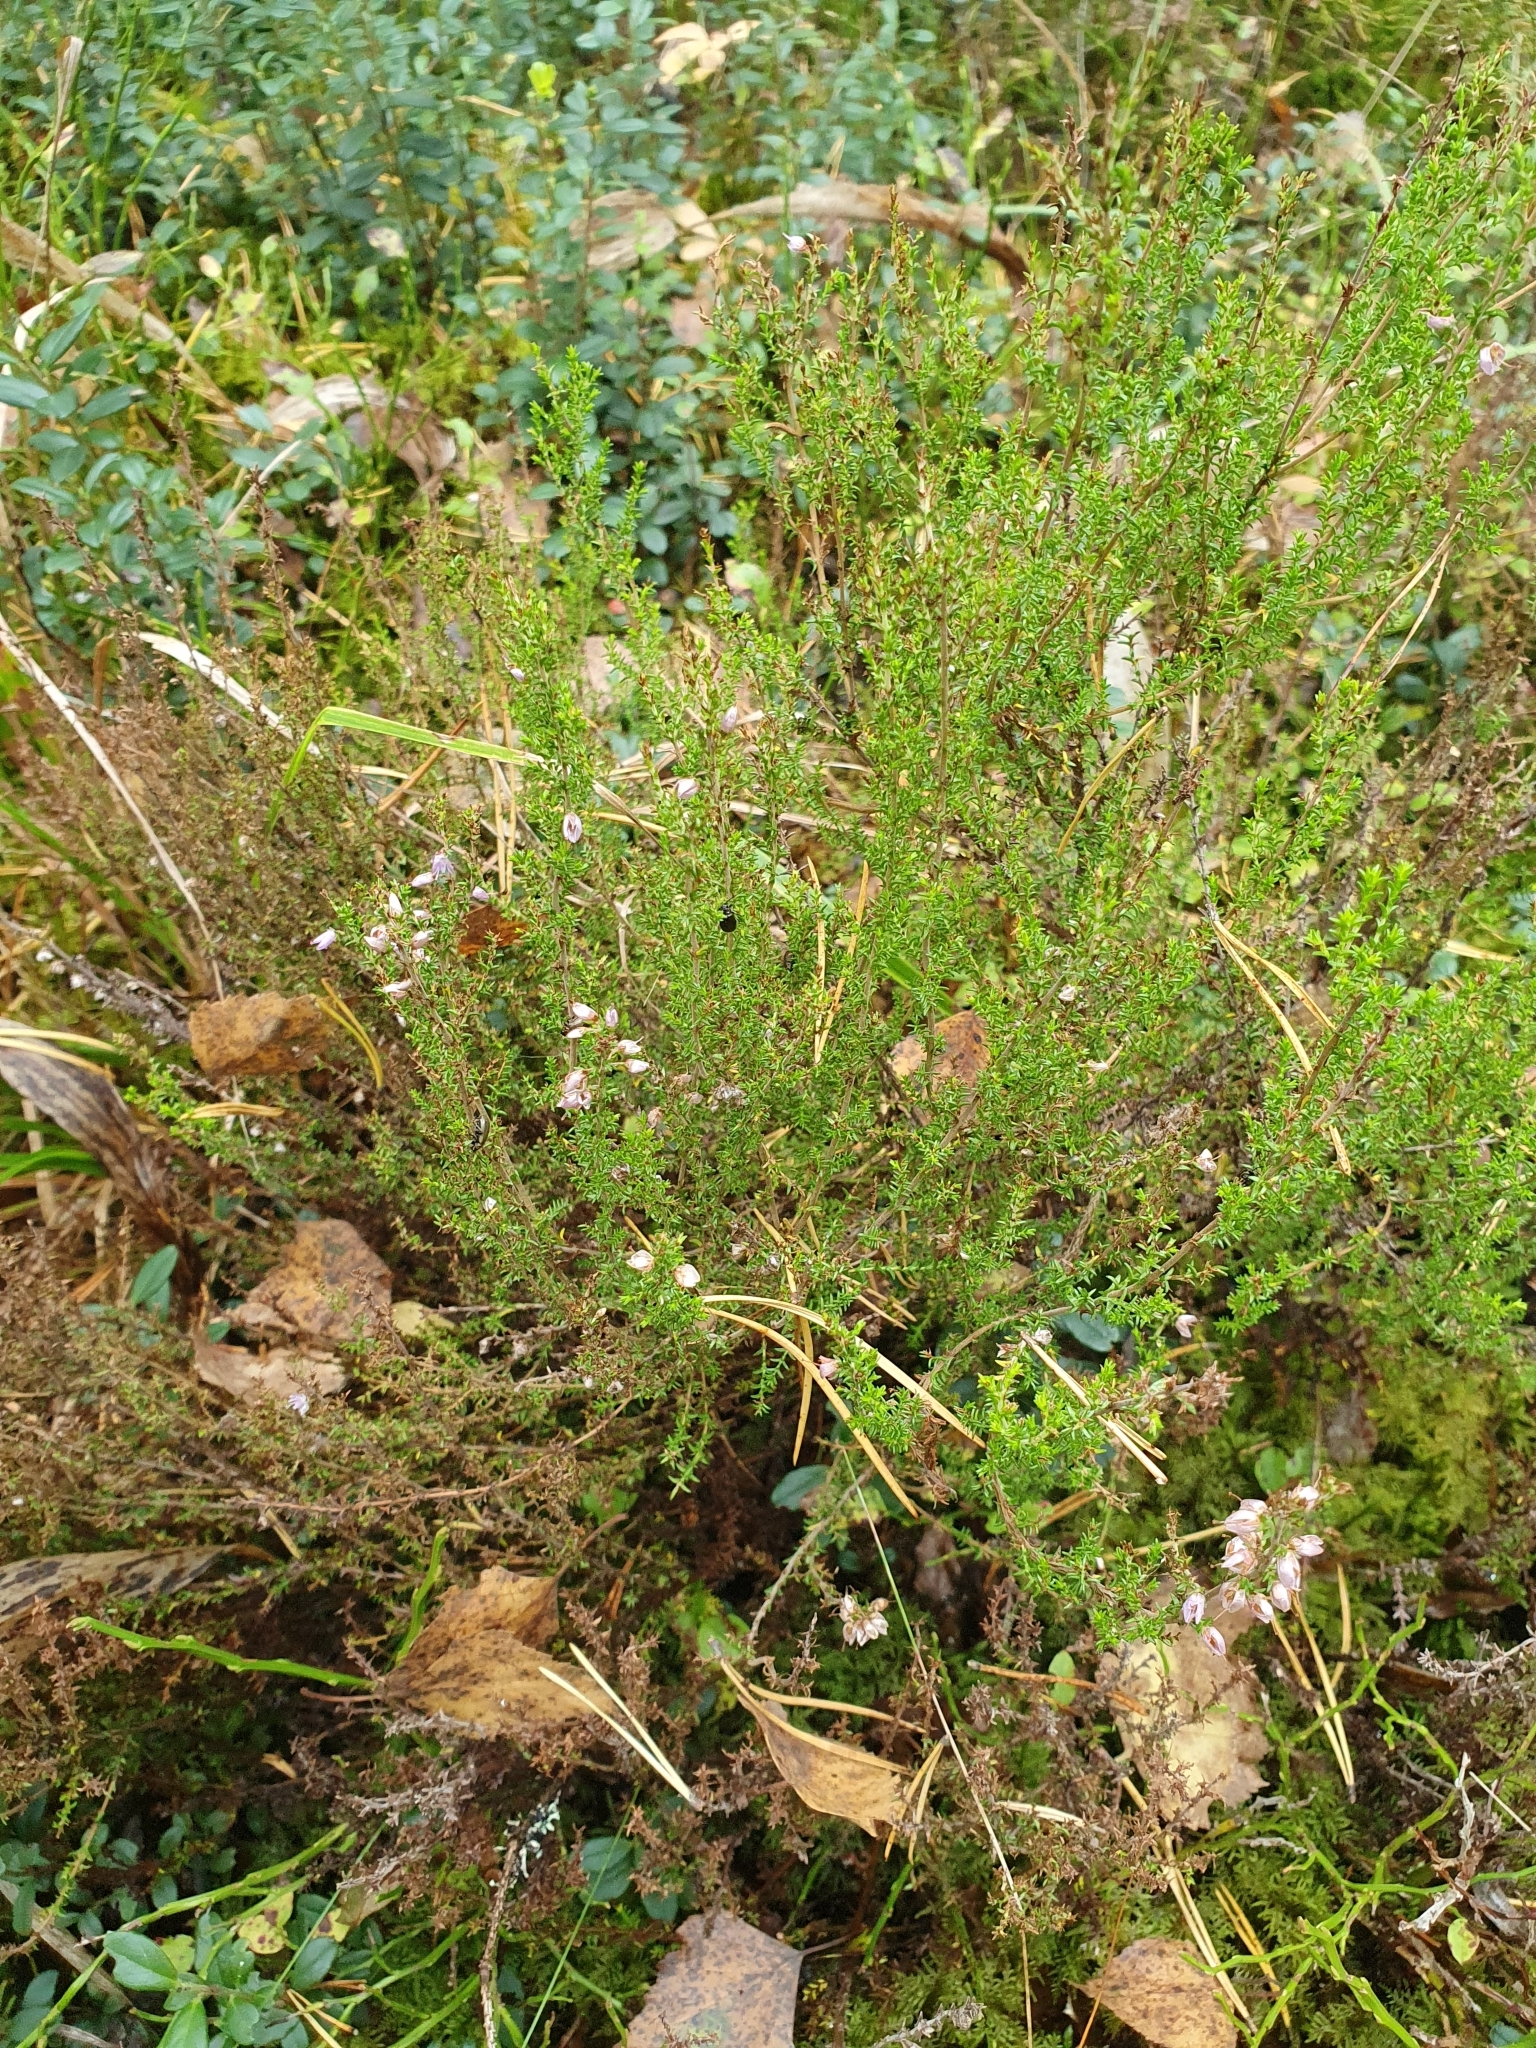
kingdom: Plantae
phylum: Tracheophyta
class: Magnoliopsida
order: Ericales
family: Ericaceae
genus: Calluna
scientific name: Calluna vulgaris
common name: Heather
